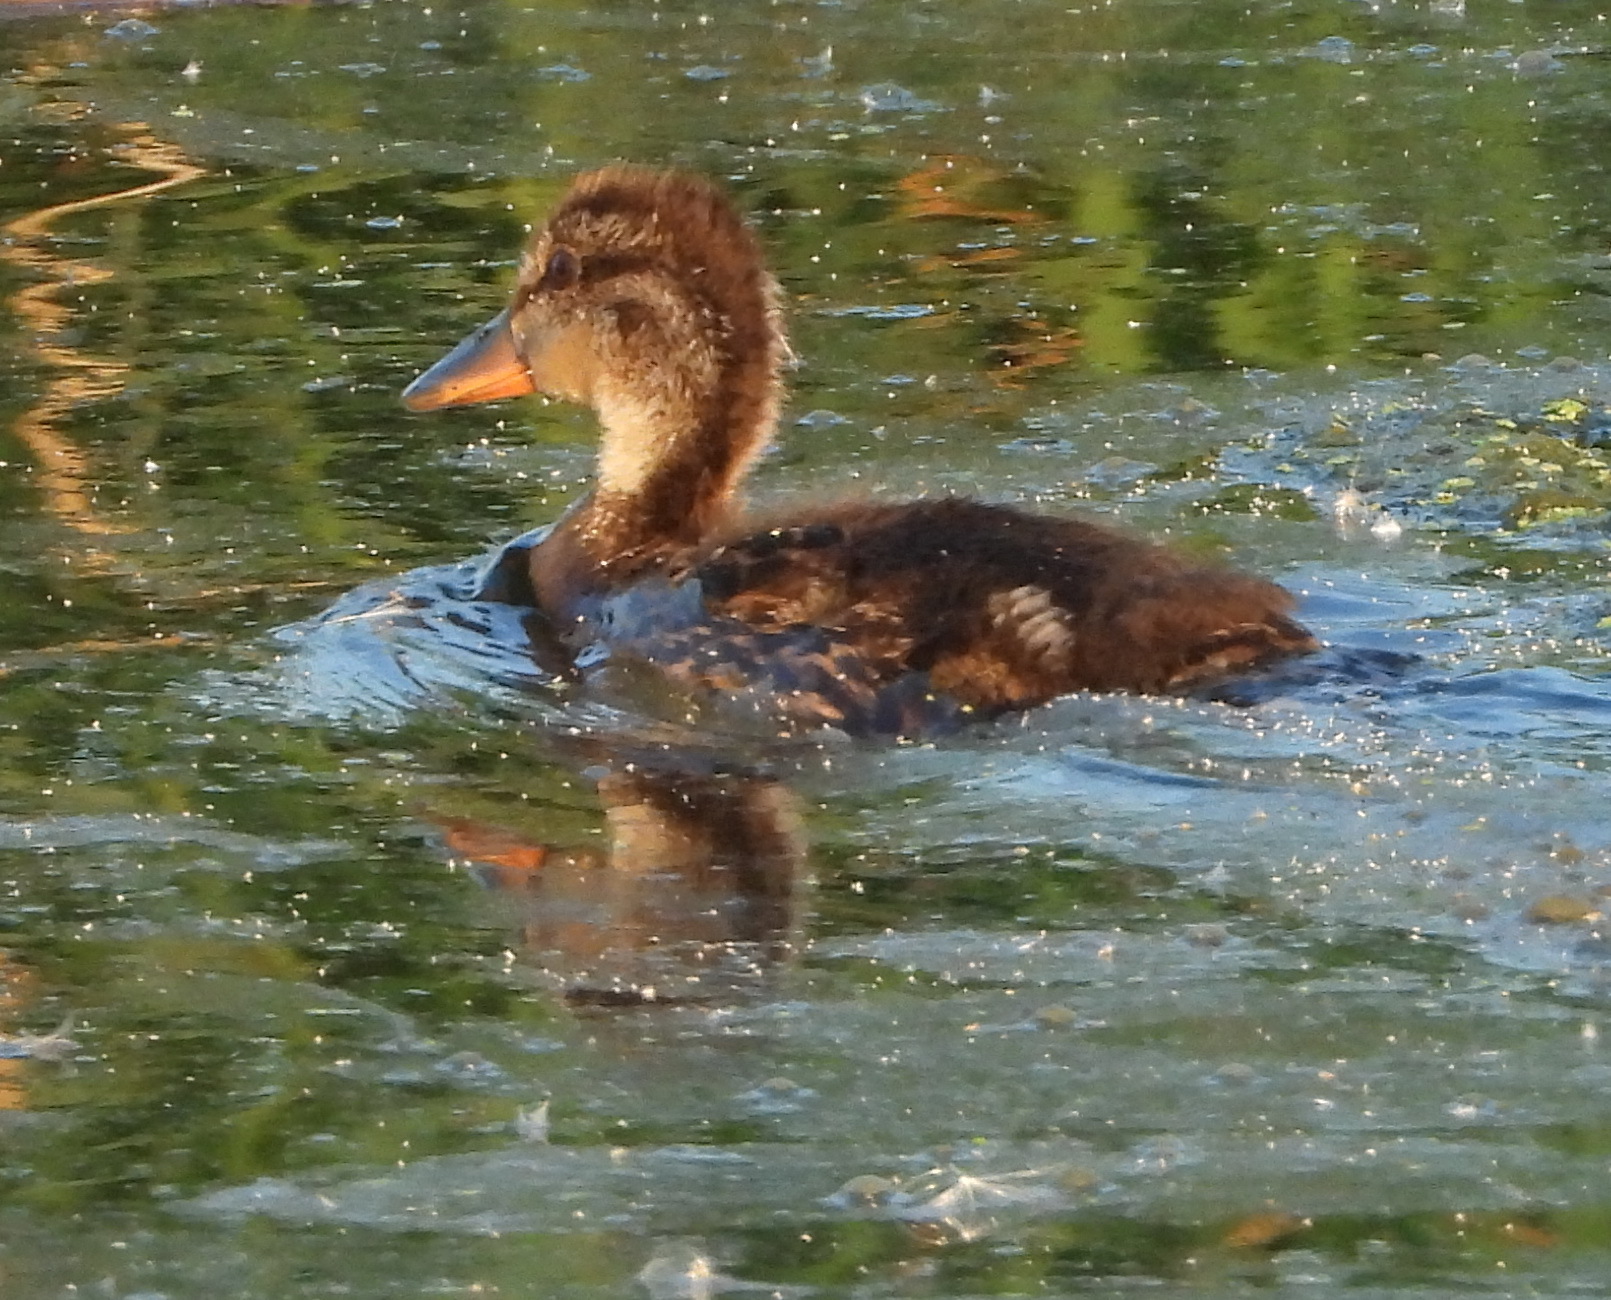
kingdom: Animalia
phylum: Chordata
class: Aves
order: Anseriformes
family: Anatidae
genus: Anas
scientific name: Anas platyrhynchos
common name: Mallard
